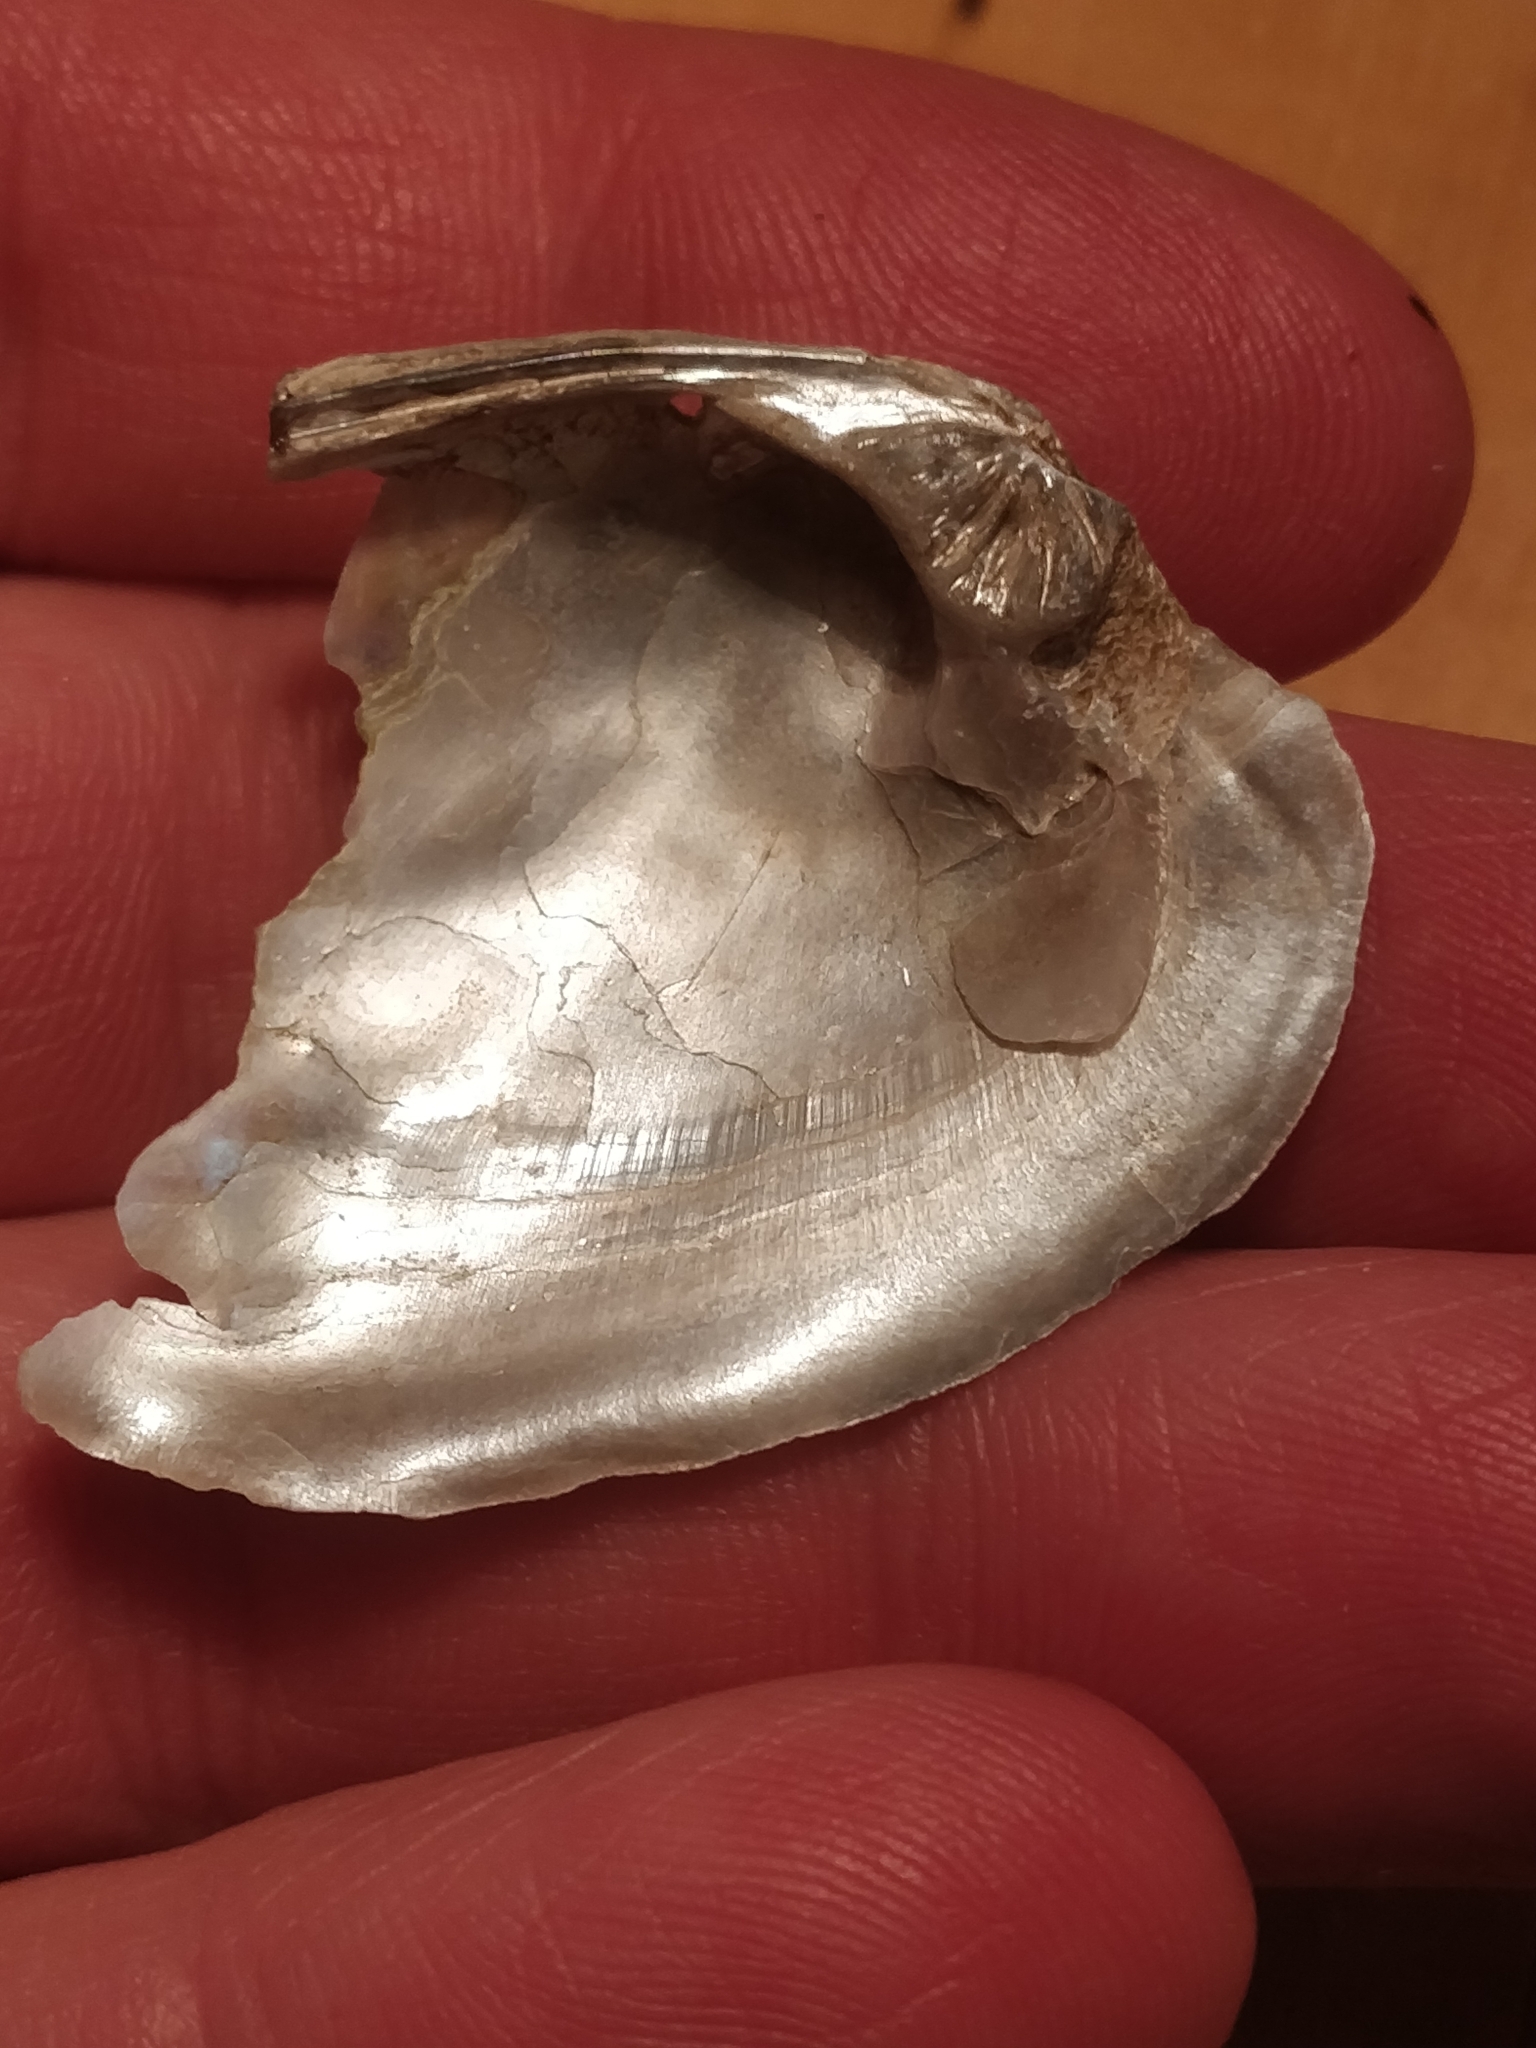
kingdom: Animalia
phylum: Mollusca
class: Bivalvia
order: Unionida
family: Unionidae
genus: Amblema
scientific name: Amblema plicata
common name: Threeridge
